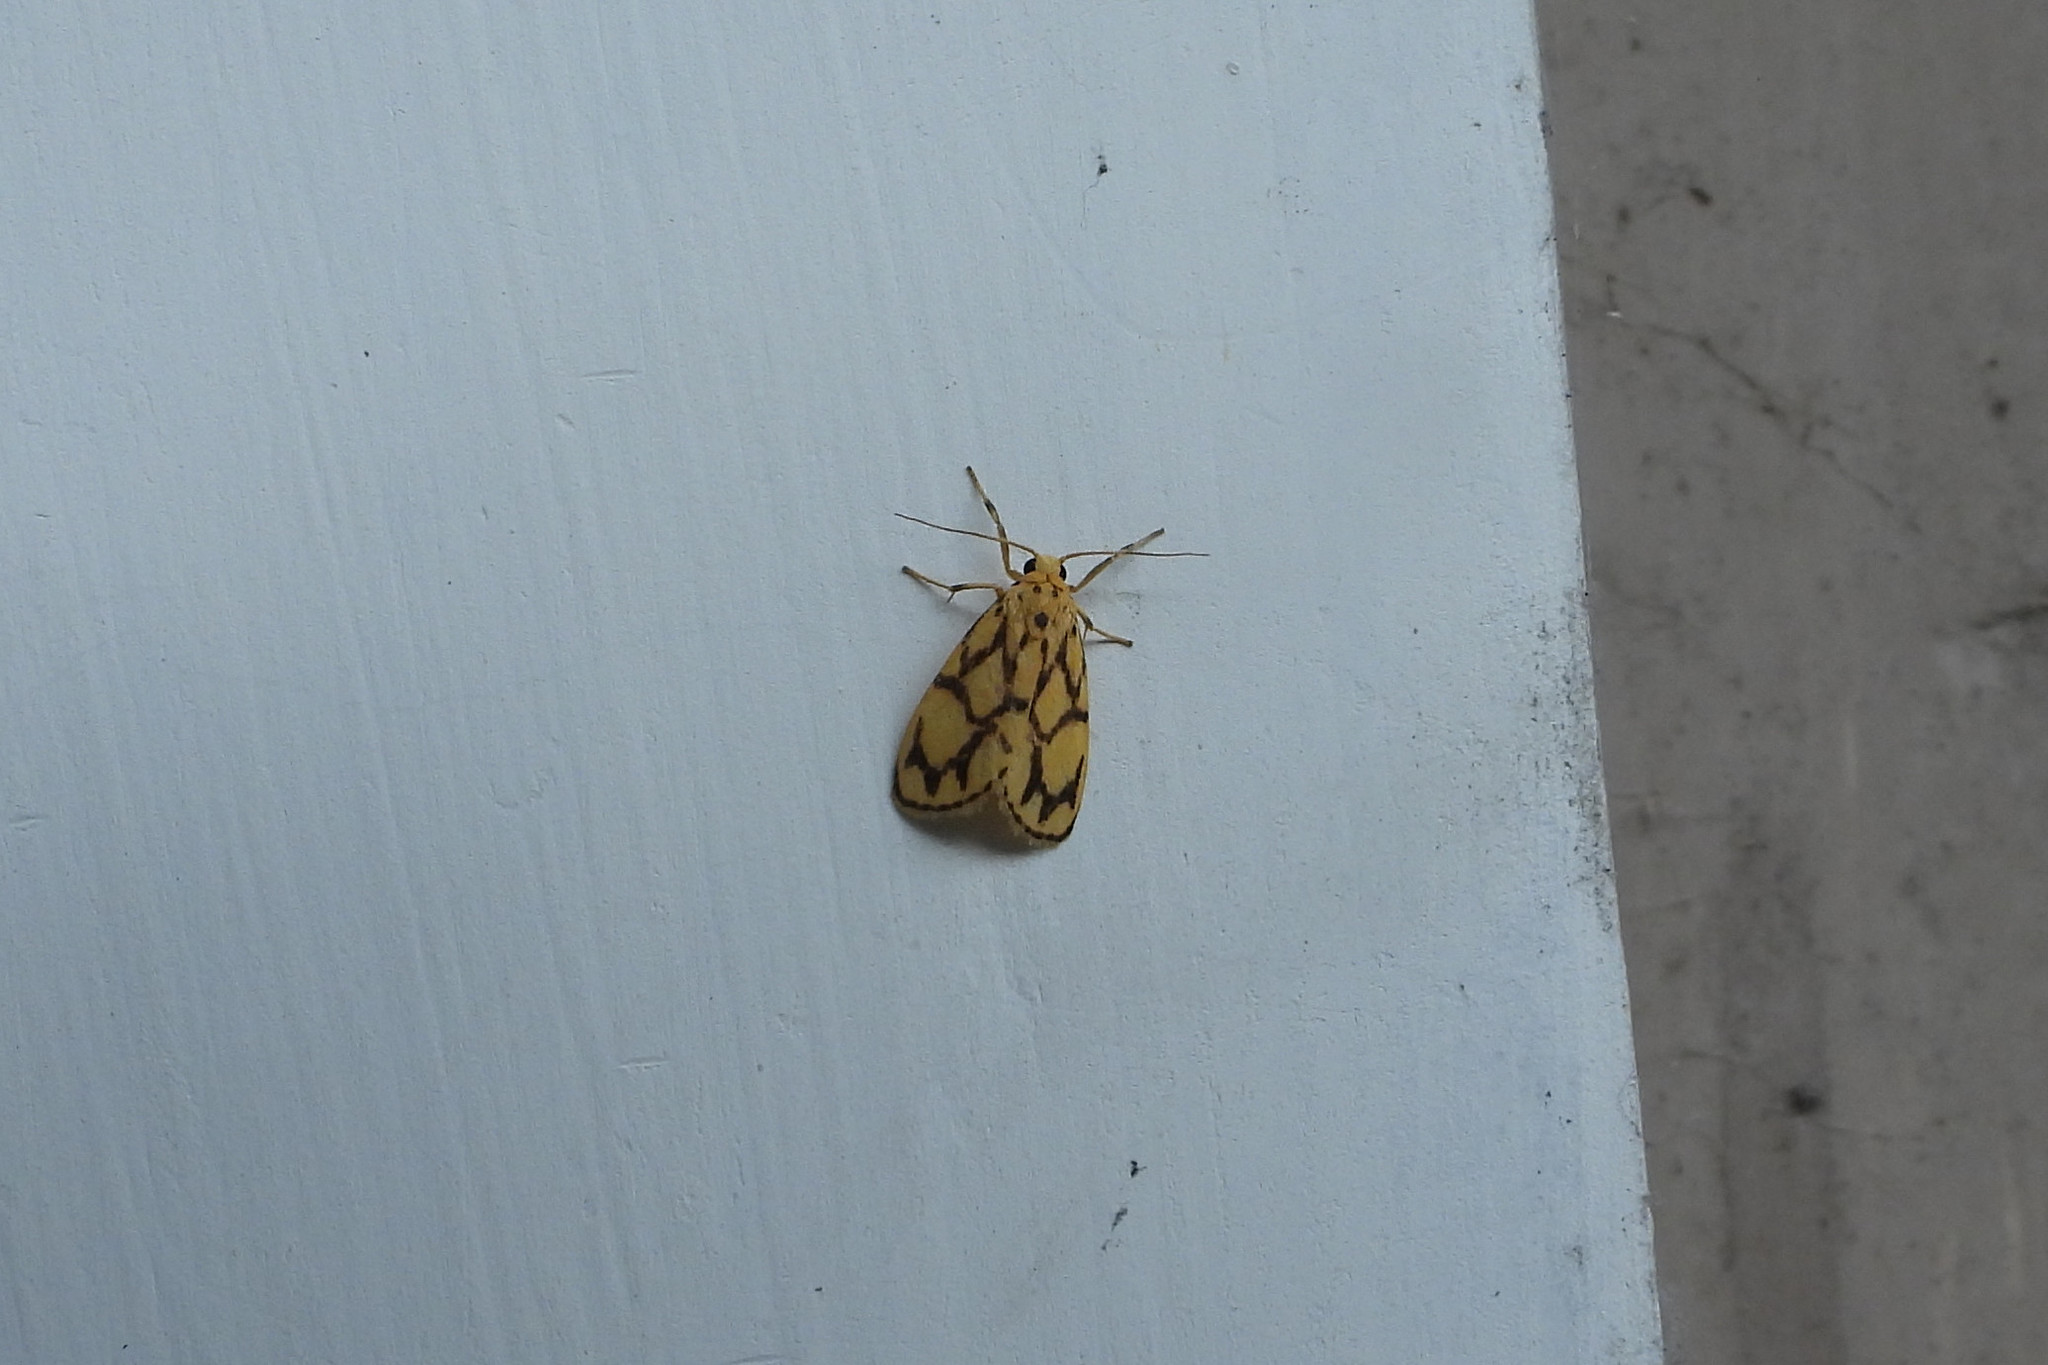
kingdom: Animalia
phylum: Arthropoda
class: Insecta
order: Lepidoptera
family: Erebidae
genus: Miltochrista
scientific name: Miltochrista conjunctana
